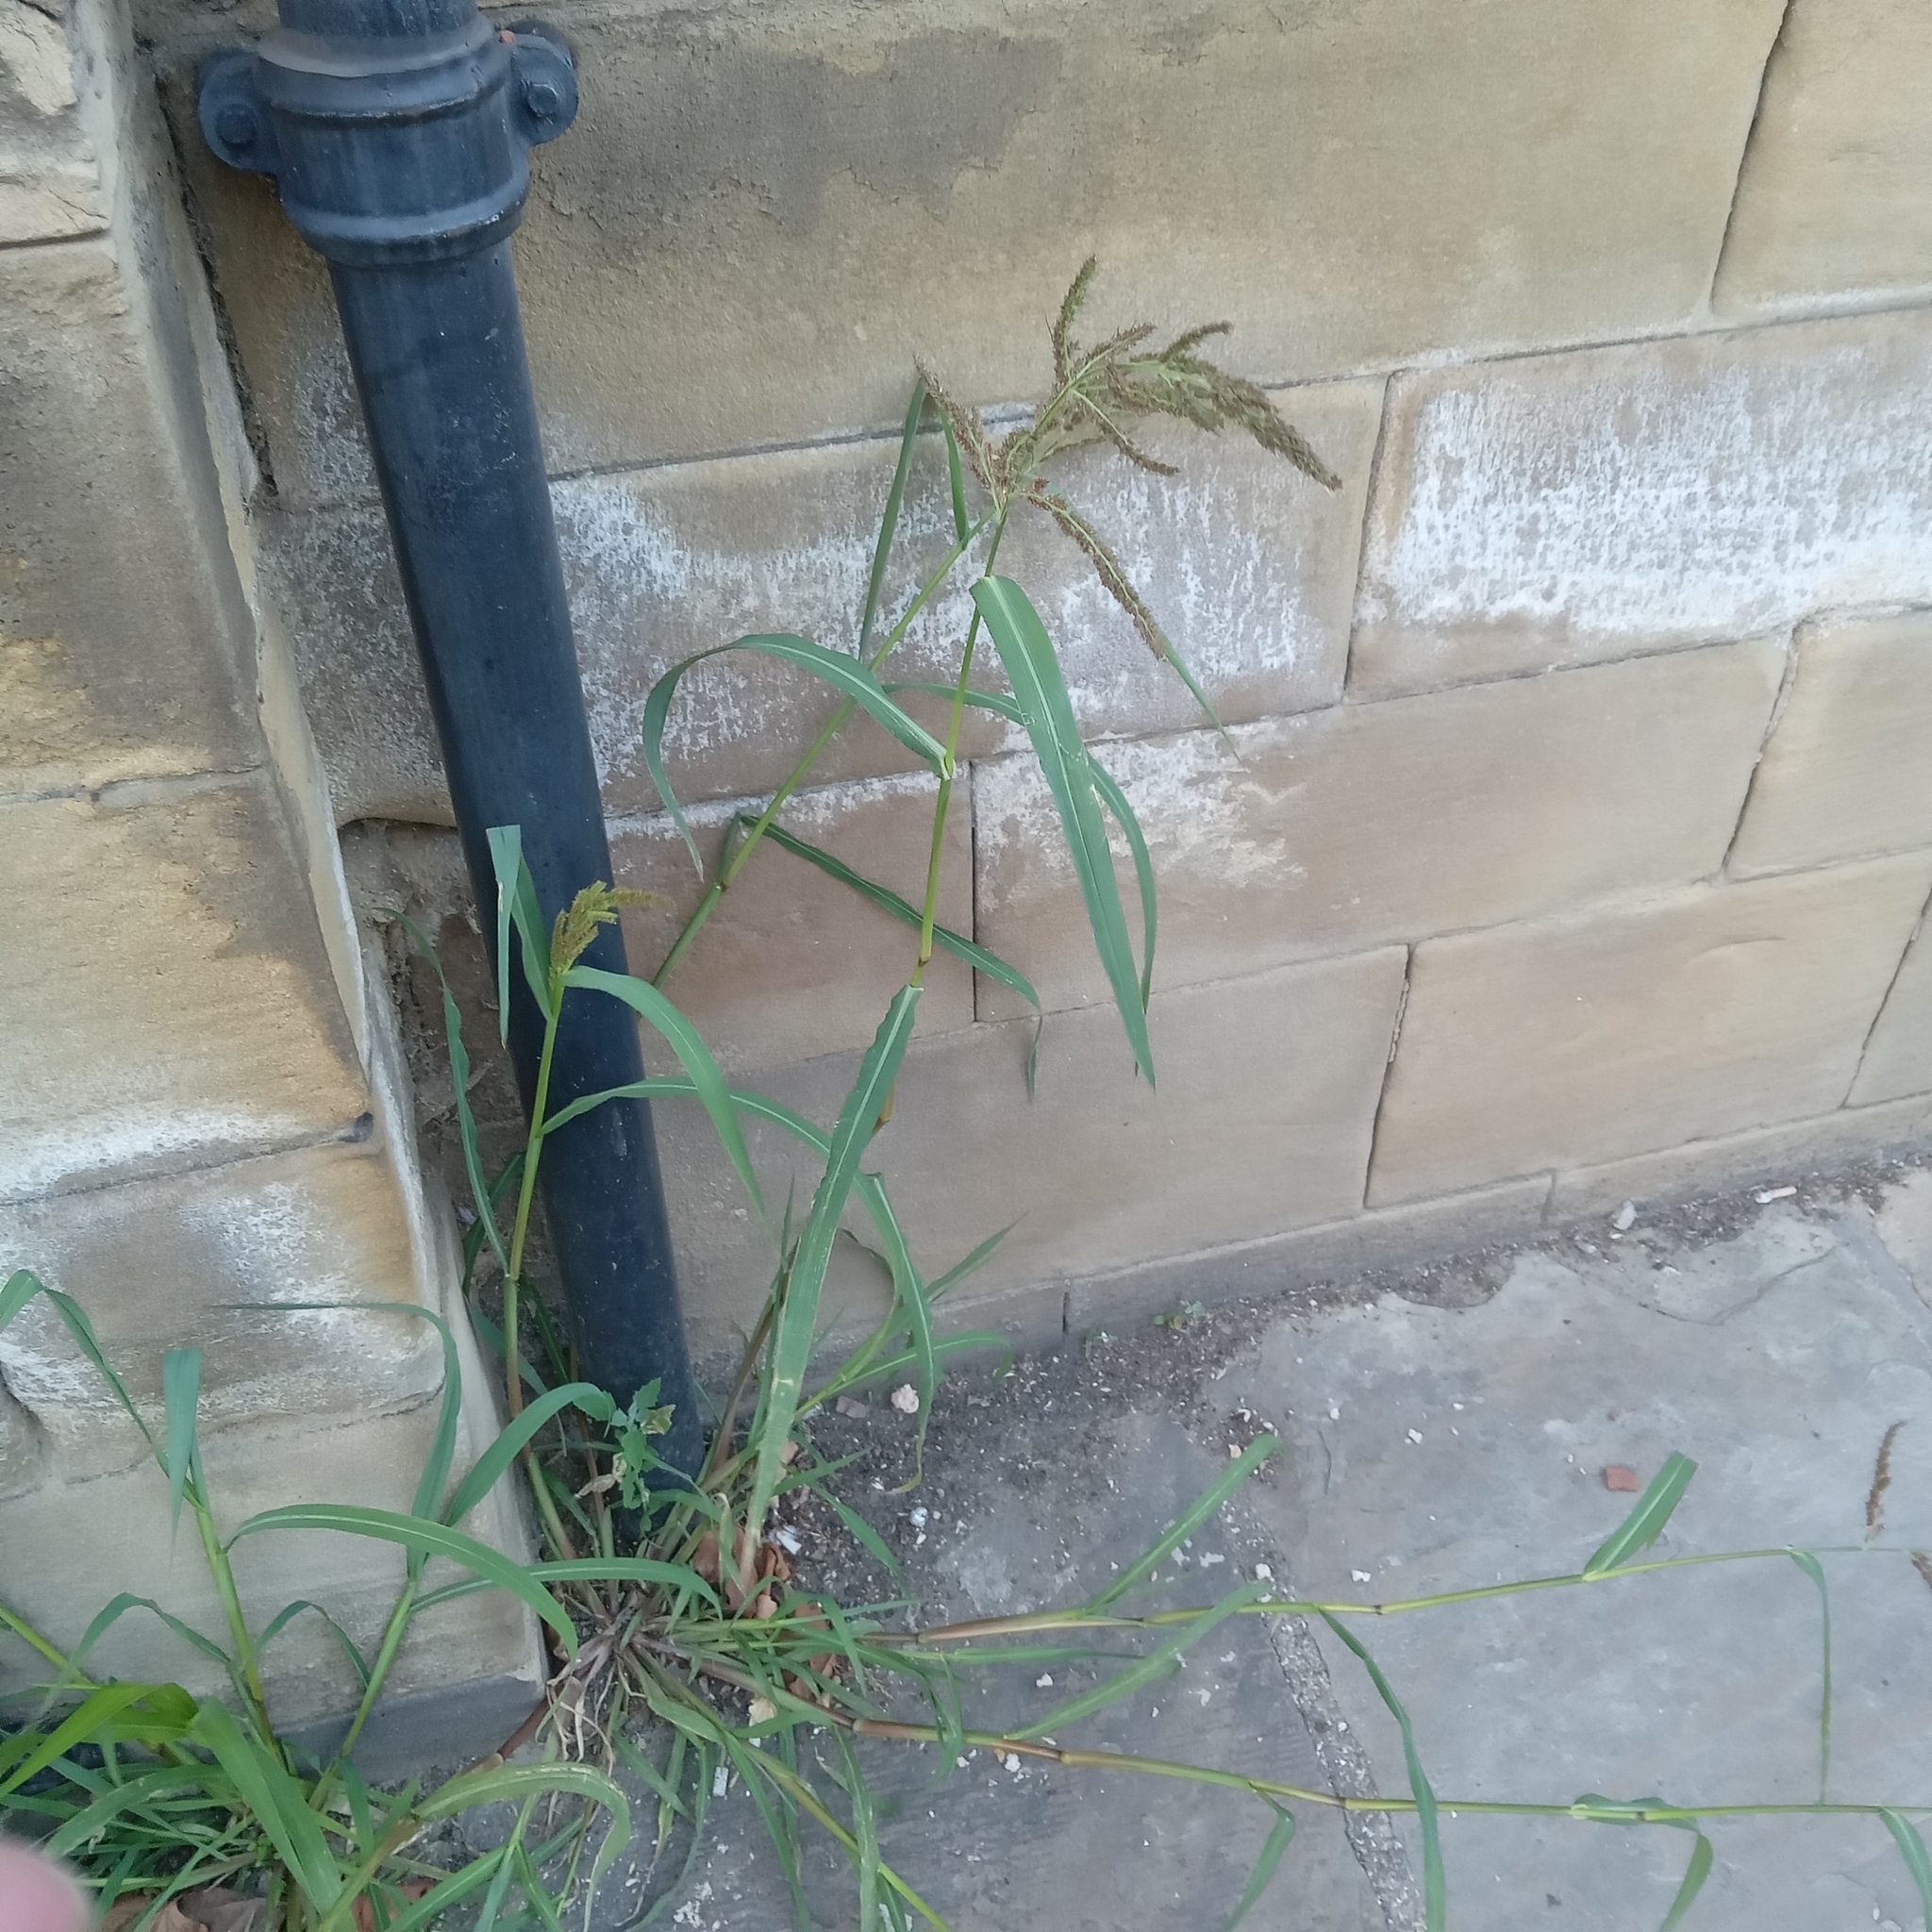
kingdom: Plantae
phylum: Tracheophyta
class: Liliopsida
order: Poales
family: Poaceae
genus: Echinochloa
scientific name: Echinochloa crus-galli
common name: Cockspur
